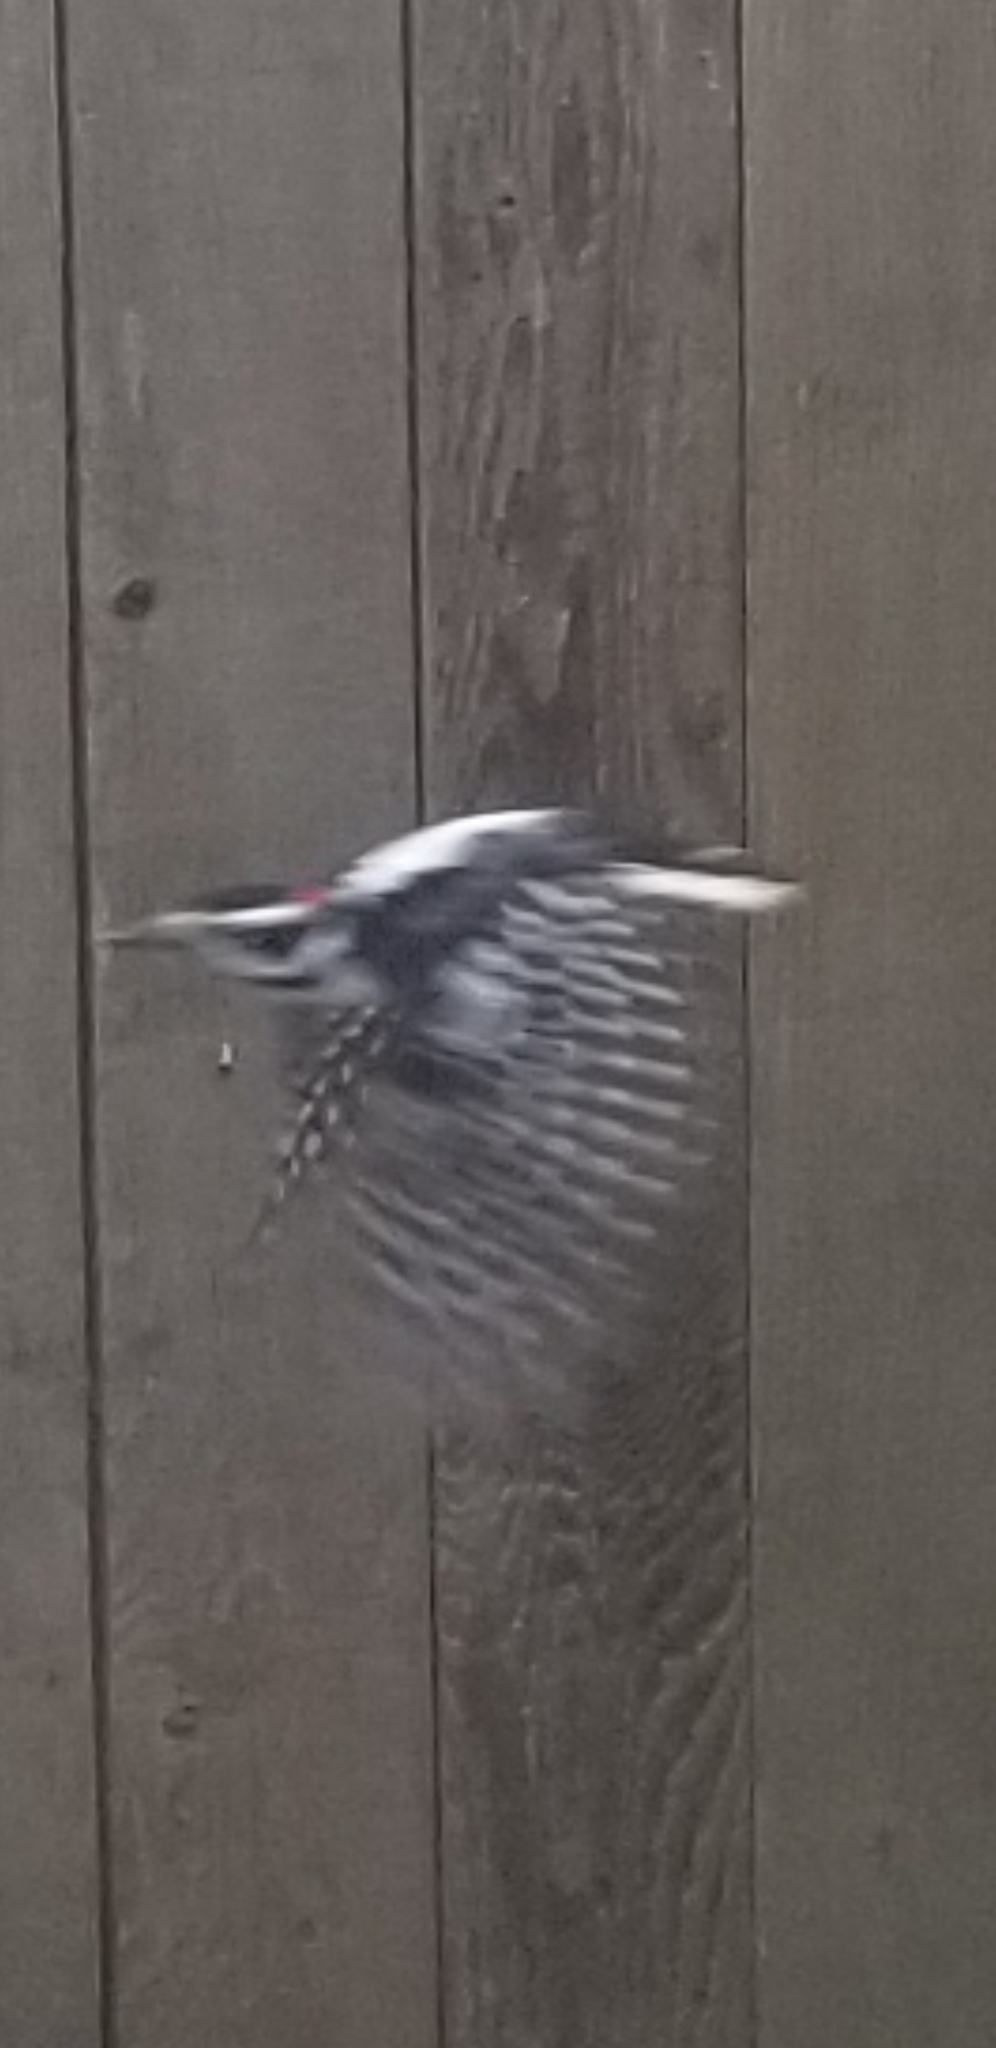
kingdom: Animalia
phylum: Chordata
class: Aves
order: Piciformes
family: Picidae
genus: Dryobates
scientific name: Dryobates pubescens
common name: Downy woodpecker
